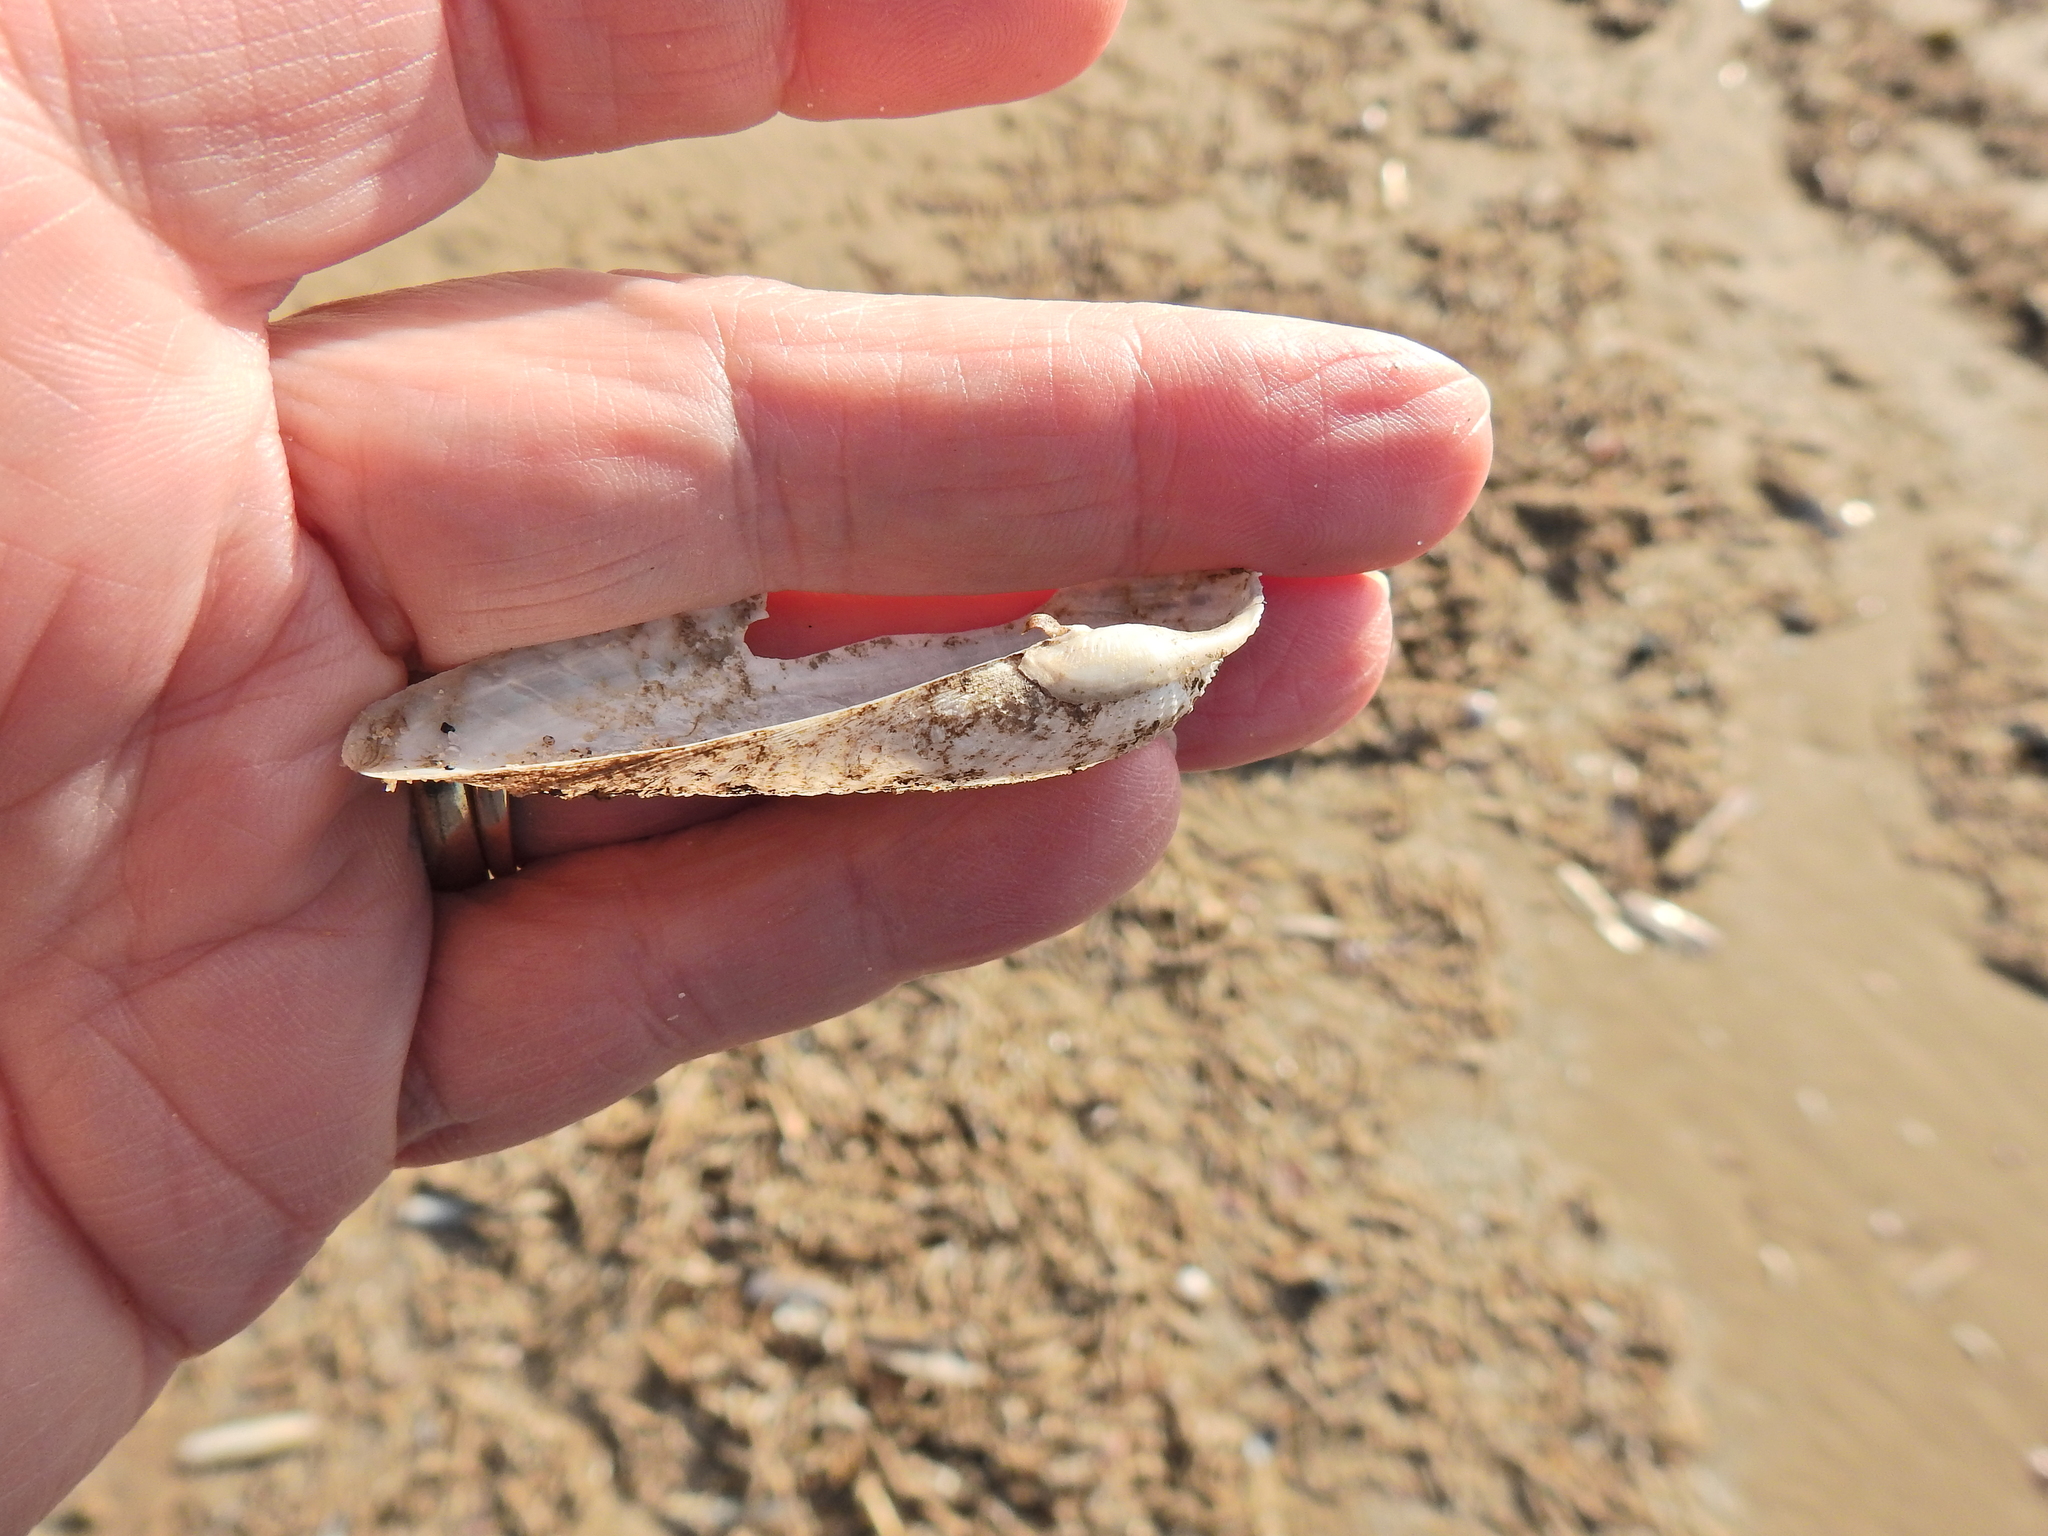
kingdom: Animalia
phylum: Mollusca
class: Bivalvia
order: Myida
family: Pholadidae
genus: Barnea
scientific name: Barnea candida
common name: White piddock
